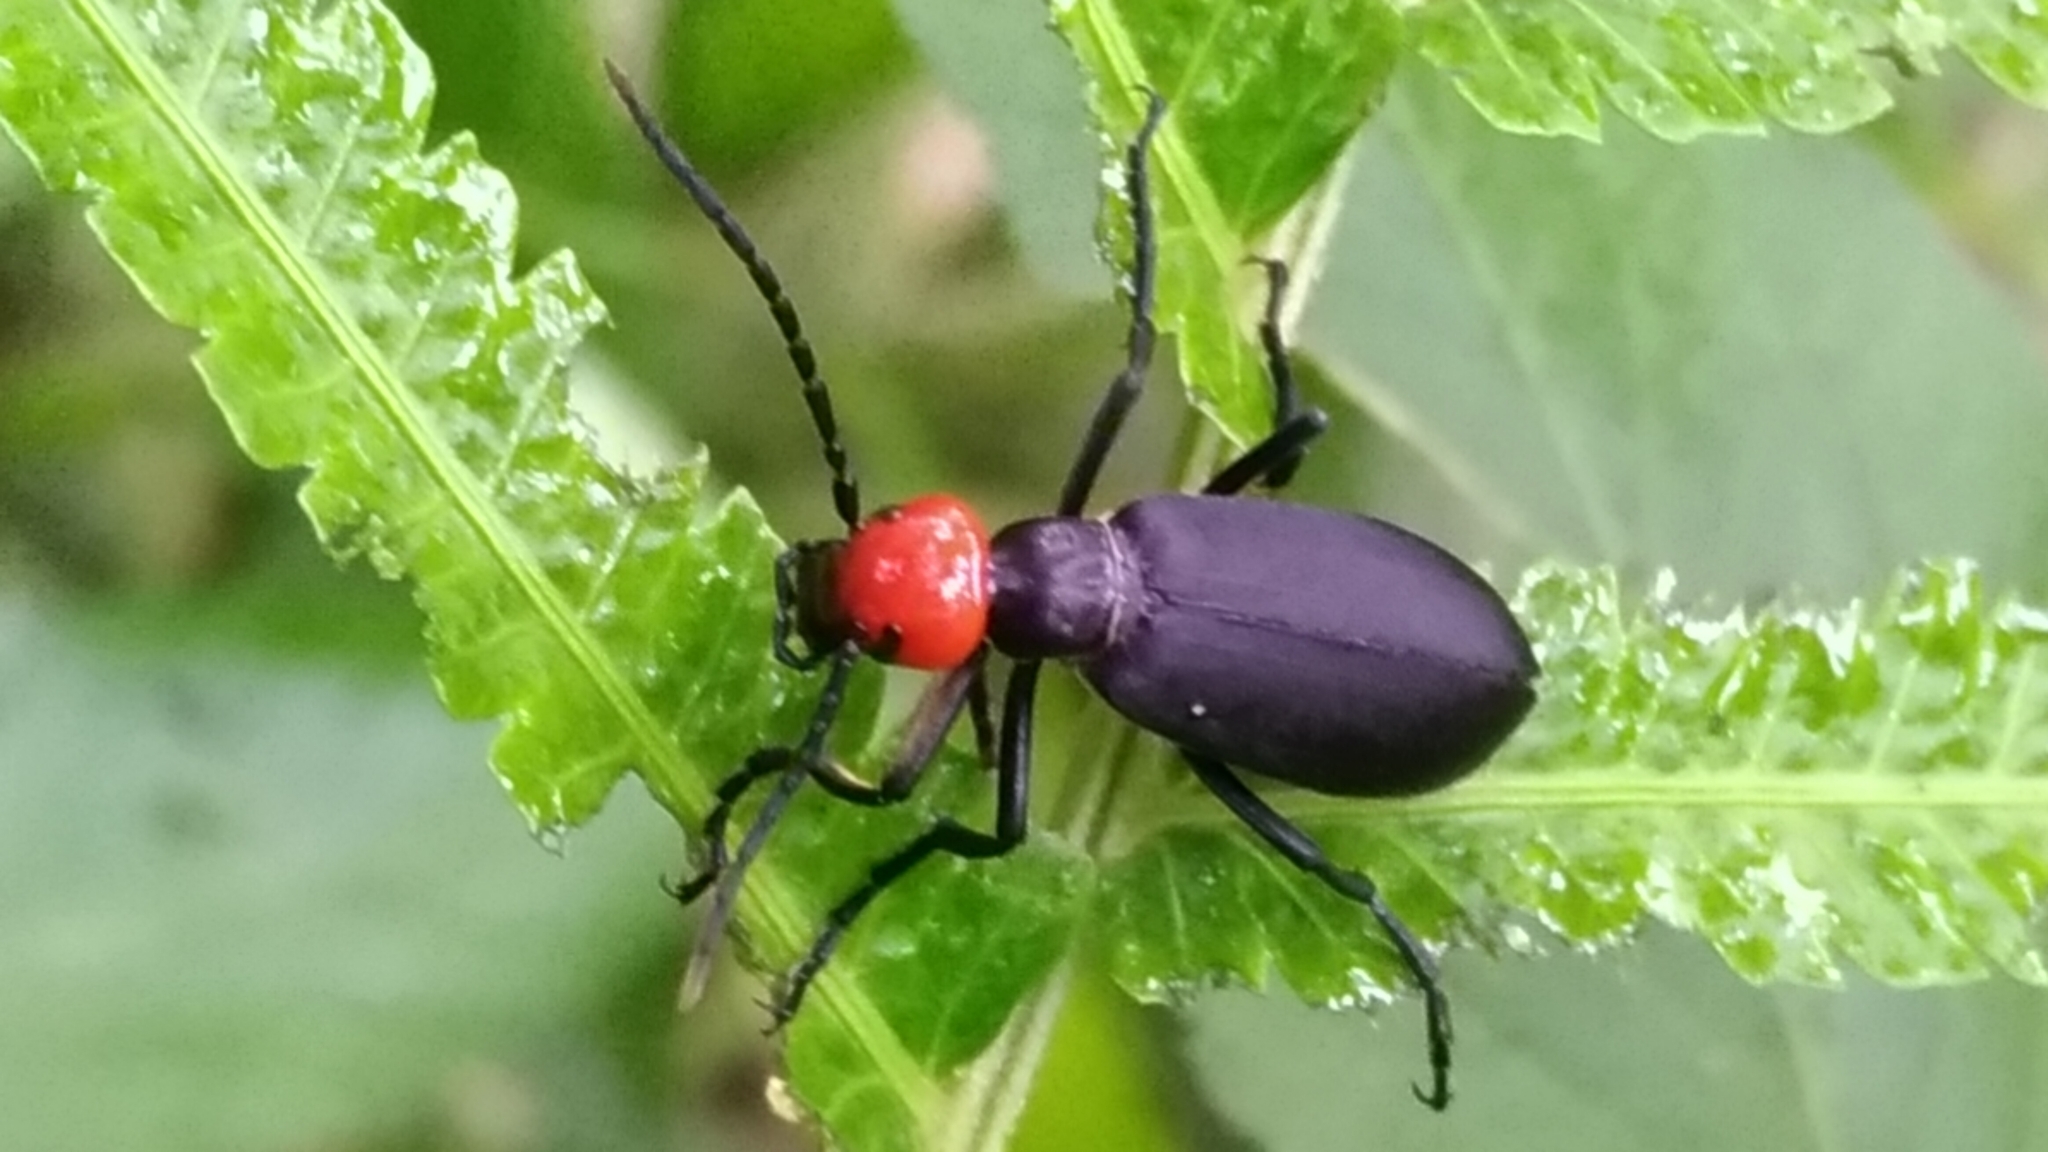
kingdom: Animalia
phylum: Arthropoda
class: Insecta
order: Coleoptera
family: Meloidae
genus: Epicauta
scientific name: Epicauta hirticornis
